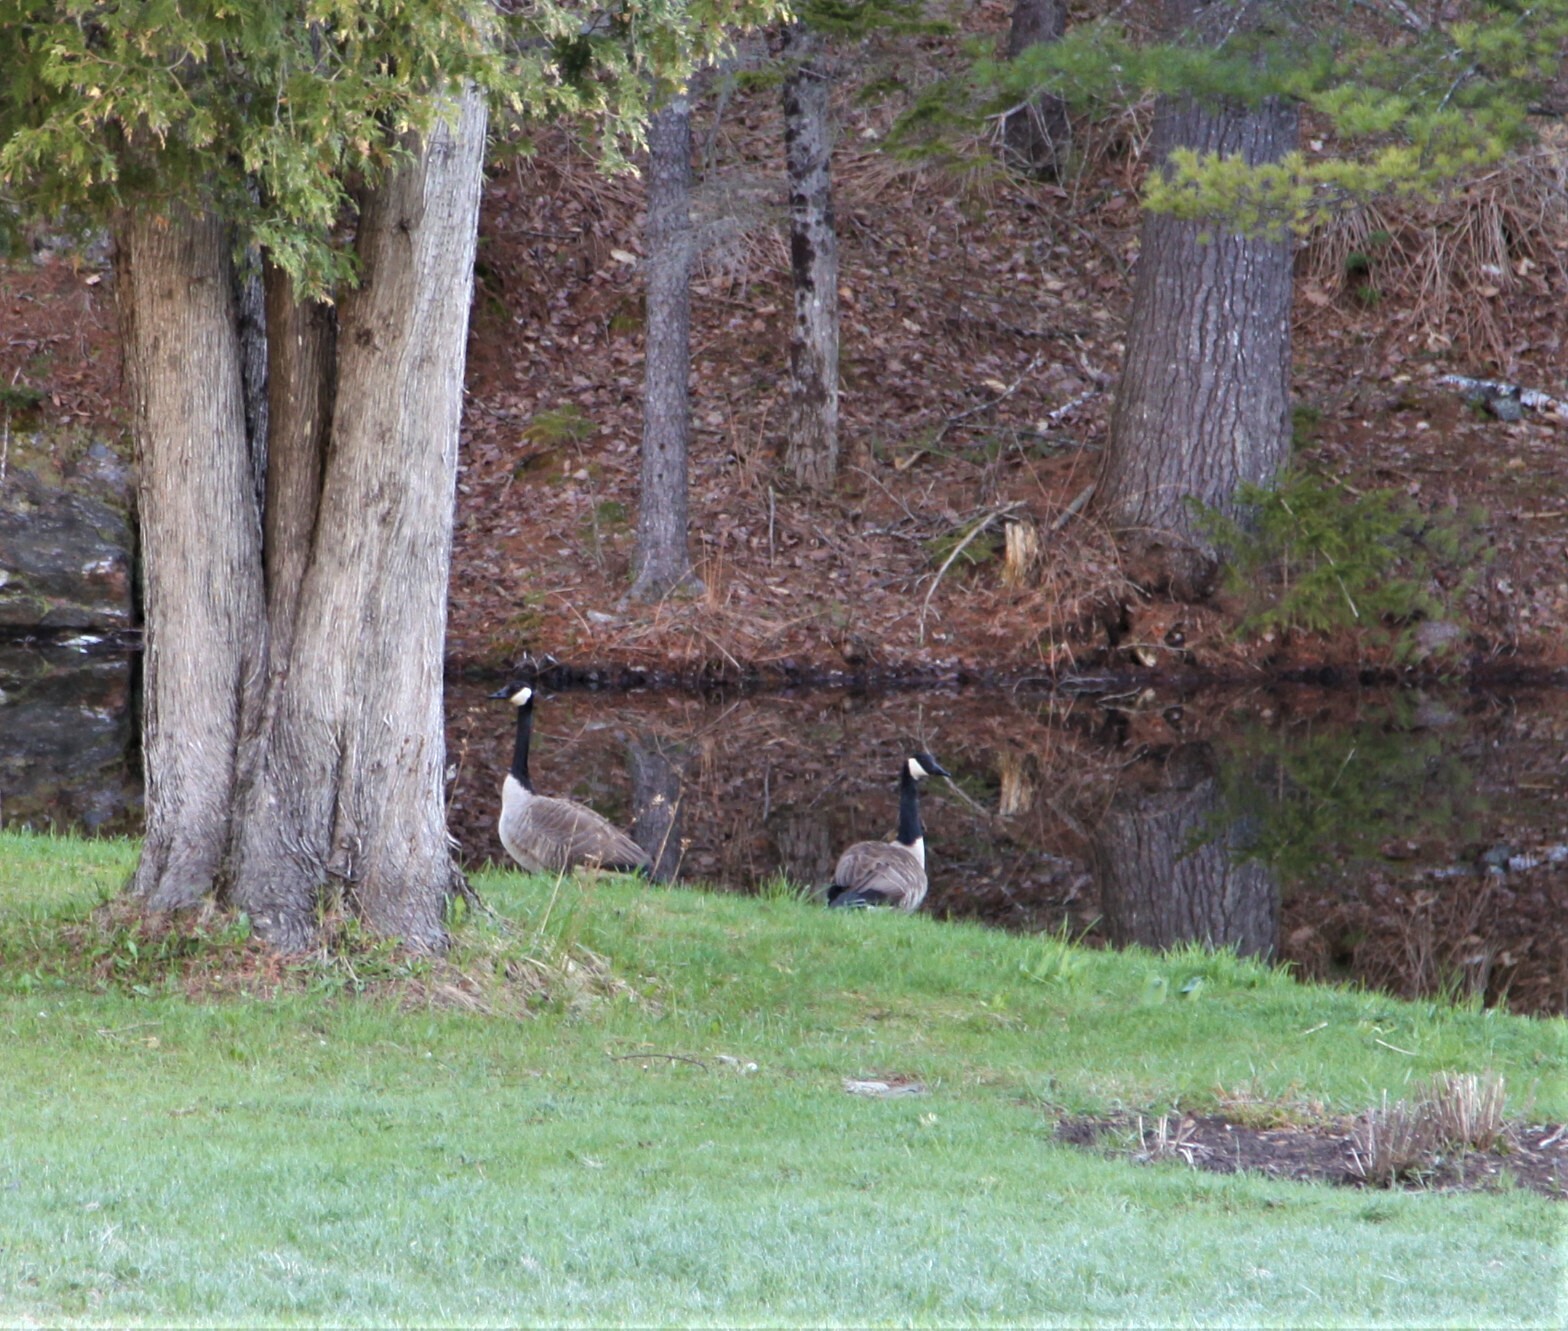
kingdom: Animalia
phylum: Chordata
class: Aves
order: Anseriformes
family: Anatidae
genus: Branta
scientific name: Branta canadensis
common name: Canada goose
